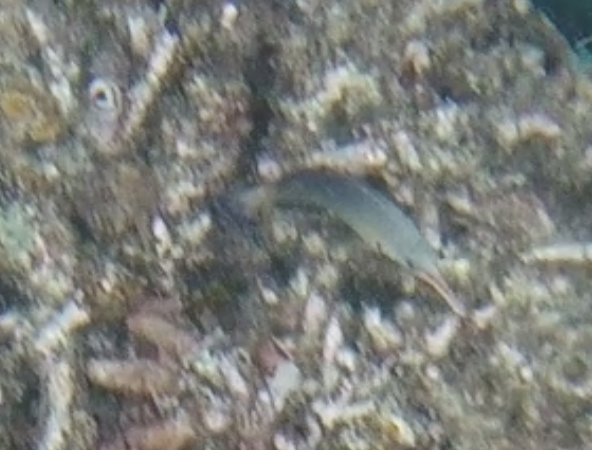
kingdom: Animalia
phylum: Chordata
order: Perciformes
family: Labridae
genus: Gomphosus
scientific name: Gomphosus caeruleus
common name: Bird wrasse
